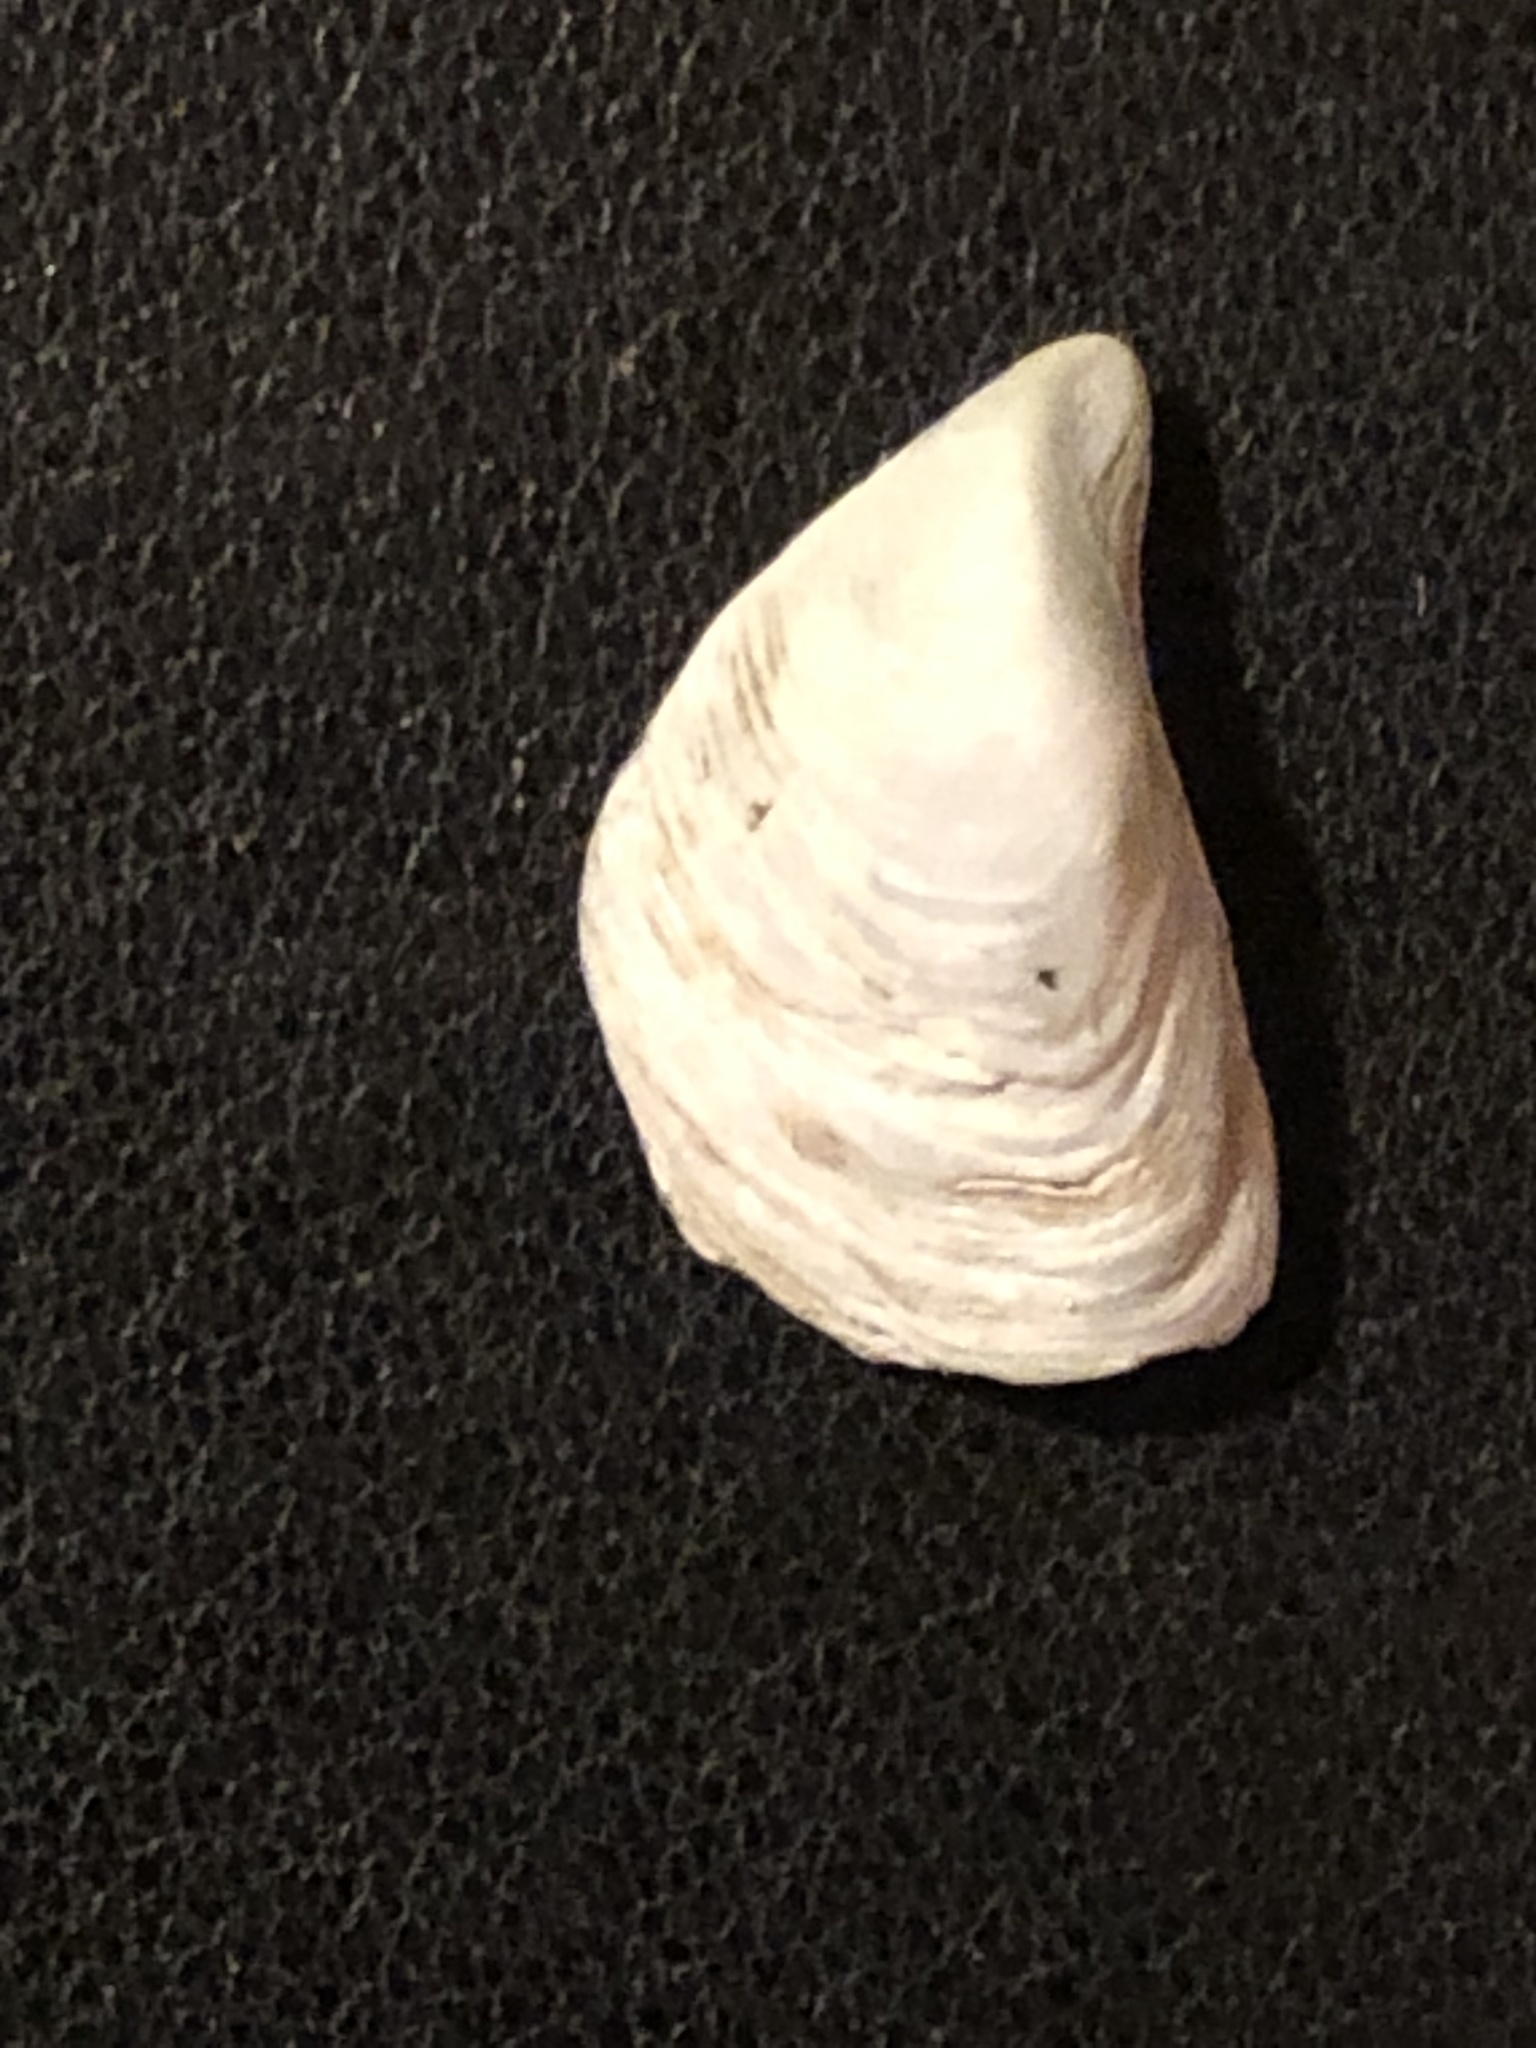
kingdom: Animalia
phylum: Mollusca
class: Bivalvia
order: Myida
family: Dreissenidae
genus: Dreissena
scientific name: Dreissena bugensis
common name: Quagga mussel
